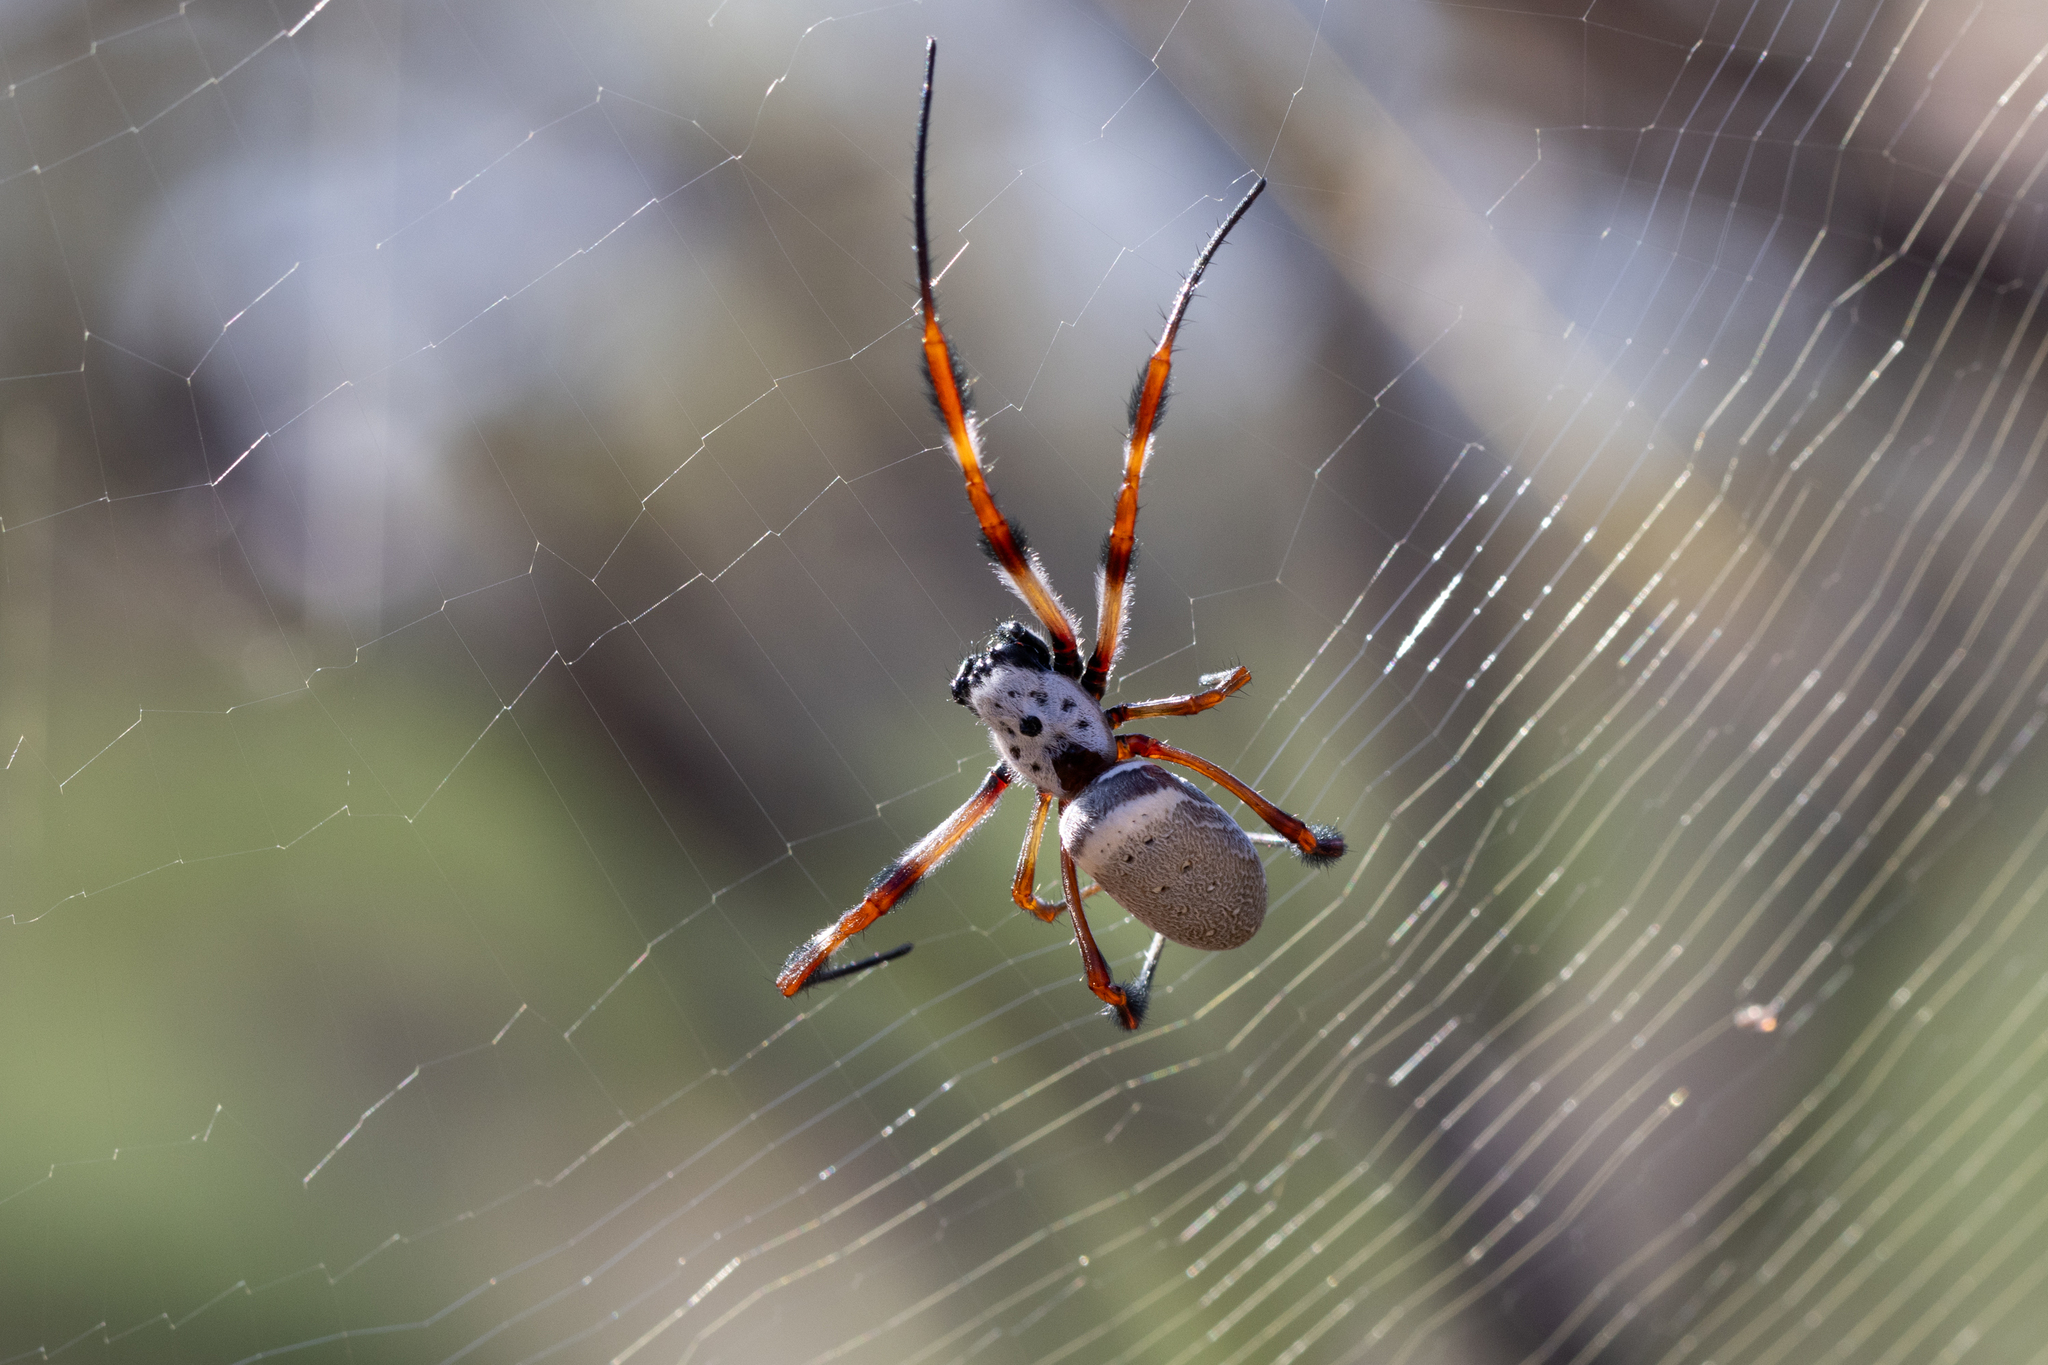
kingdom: Animalia
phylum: Arthropoda
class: Arachnida
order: Araneae
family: Araneidae
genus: Trichonephila
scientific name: Trichonephila edulis
